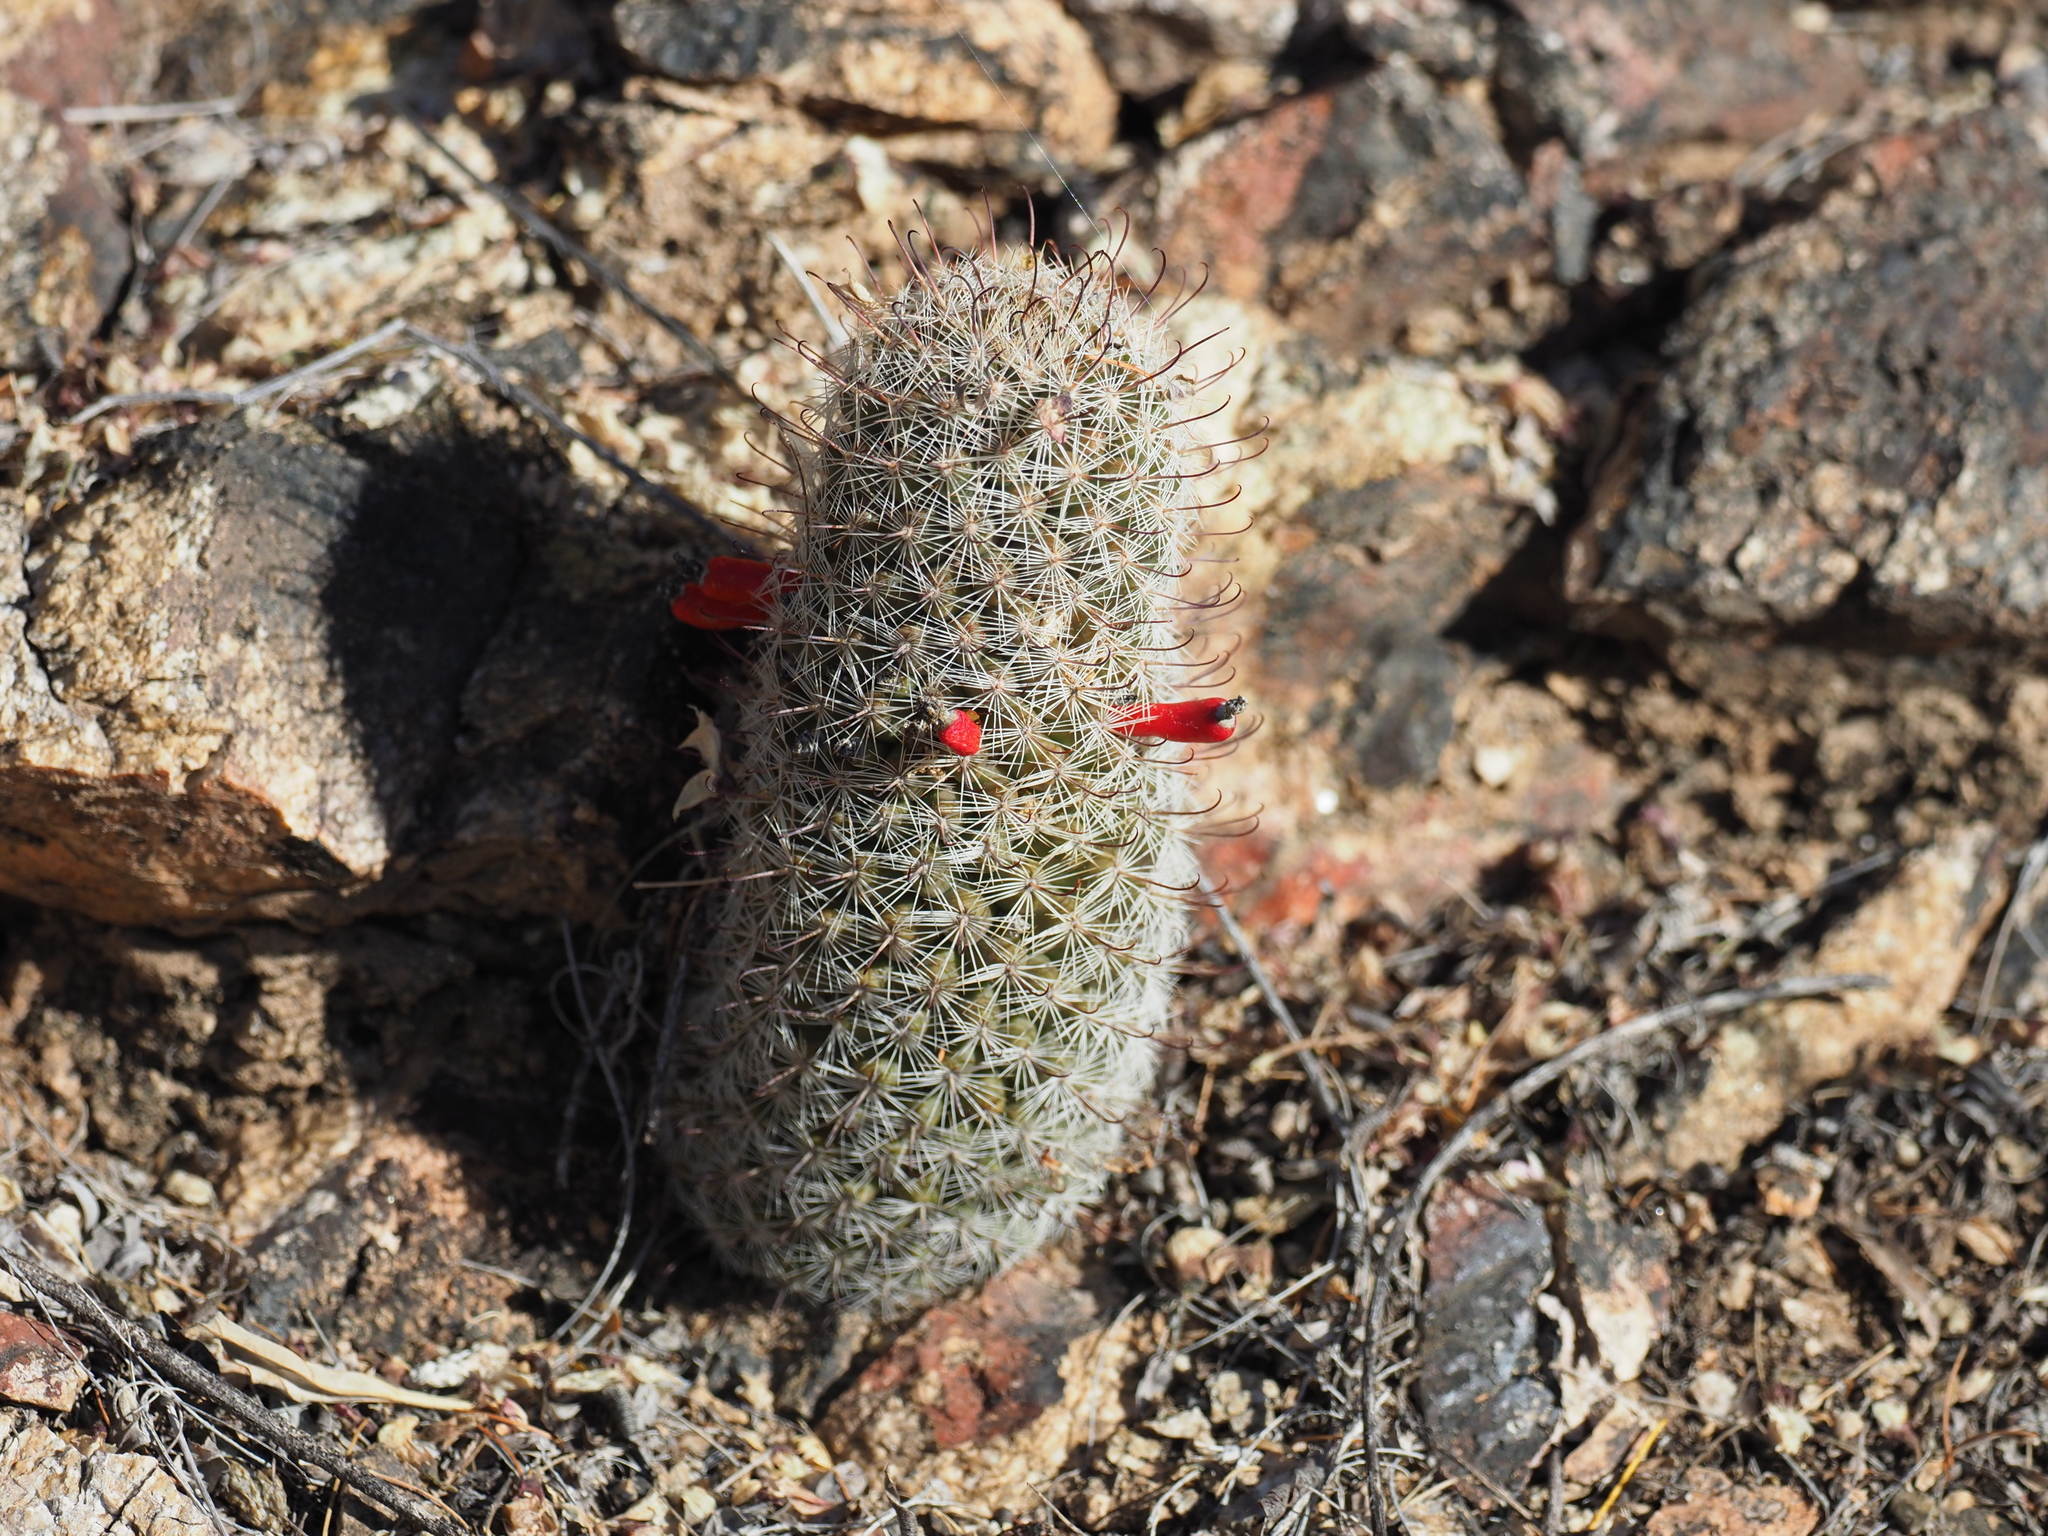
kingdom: Plantae
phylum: Tracheophyta
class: Magnoliopsida
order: Caryophyllales
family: Cactaceae
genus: Cochemiea
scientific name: Cochemiea grahamii
